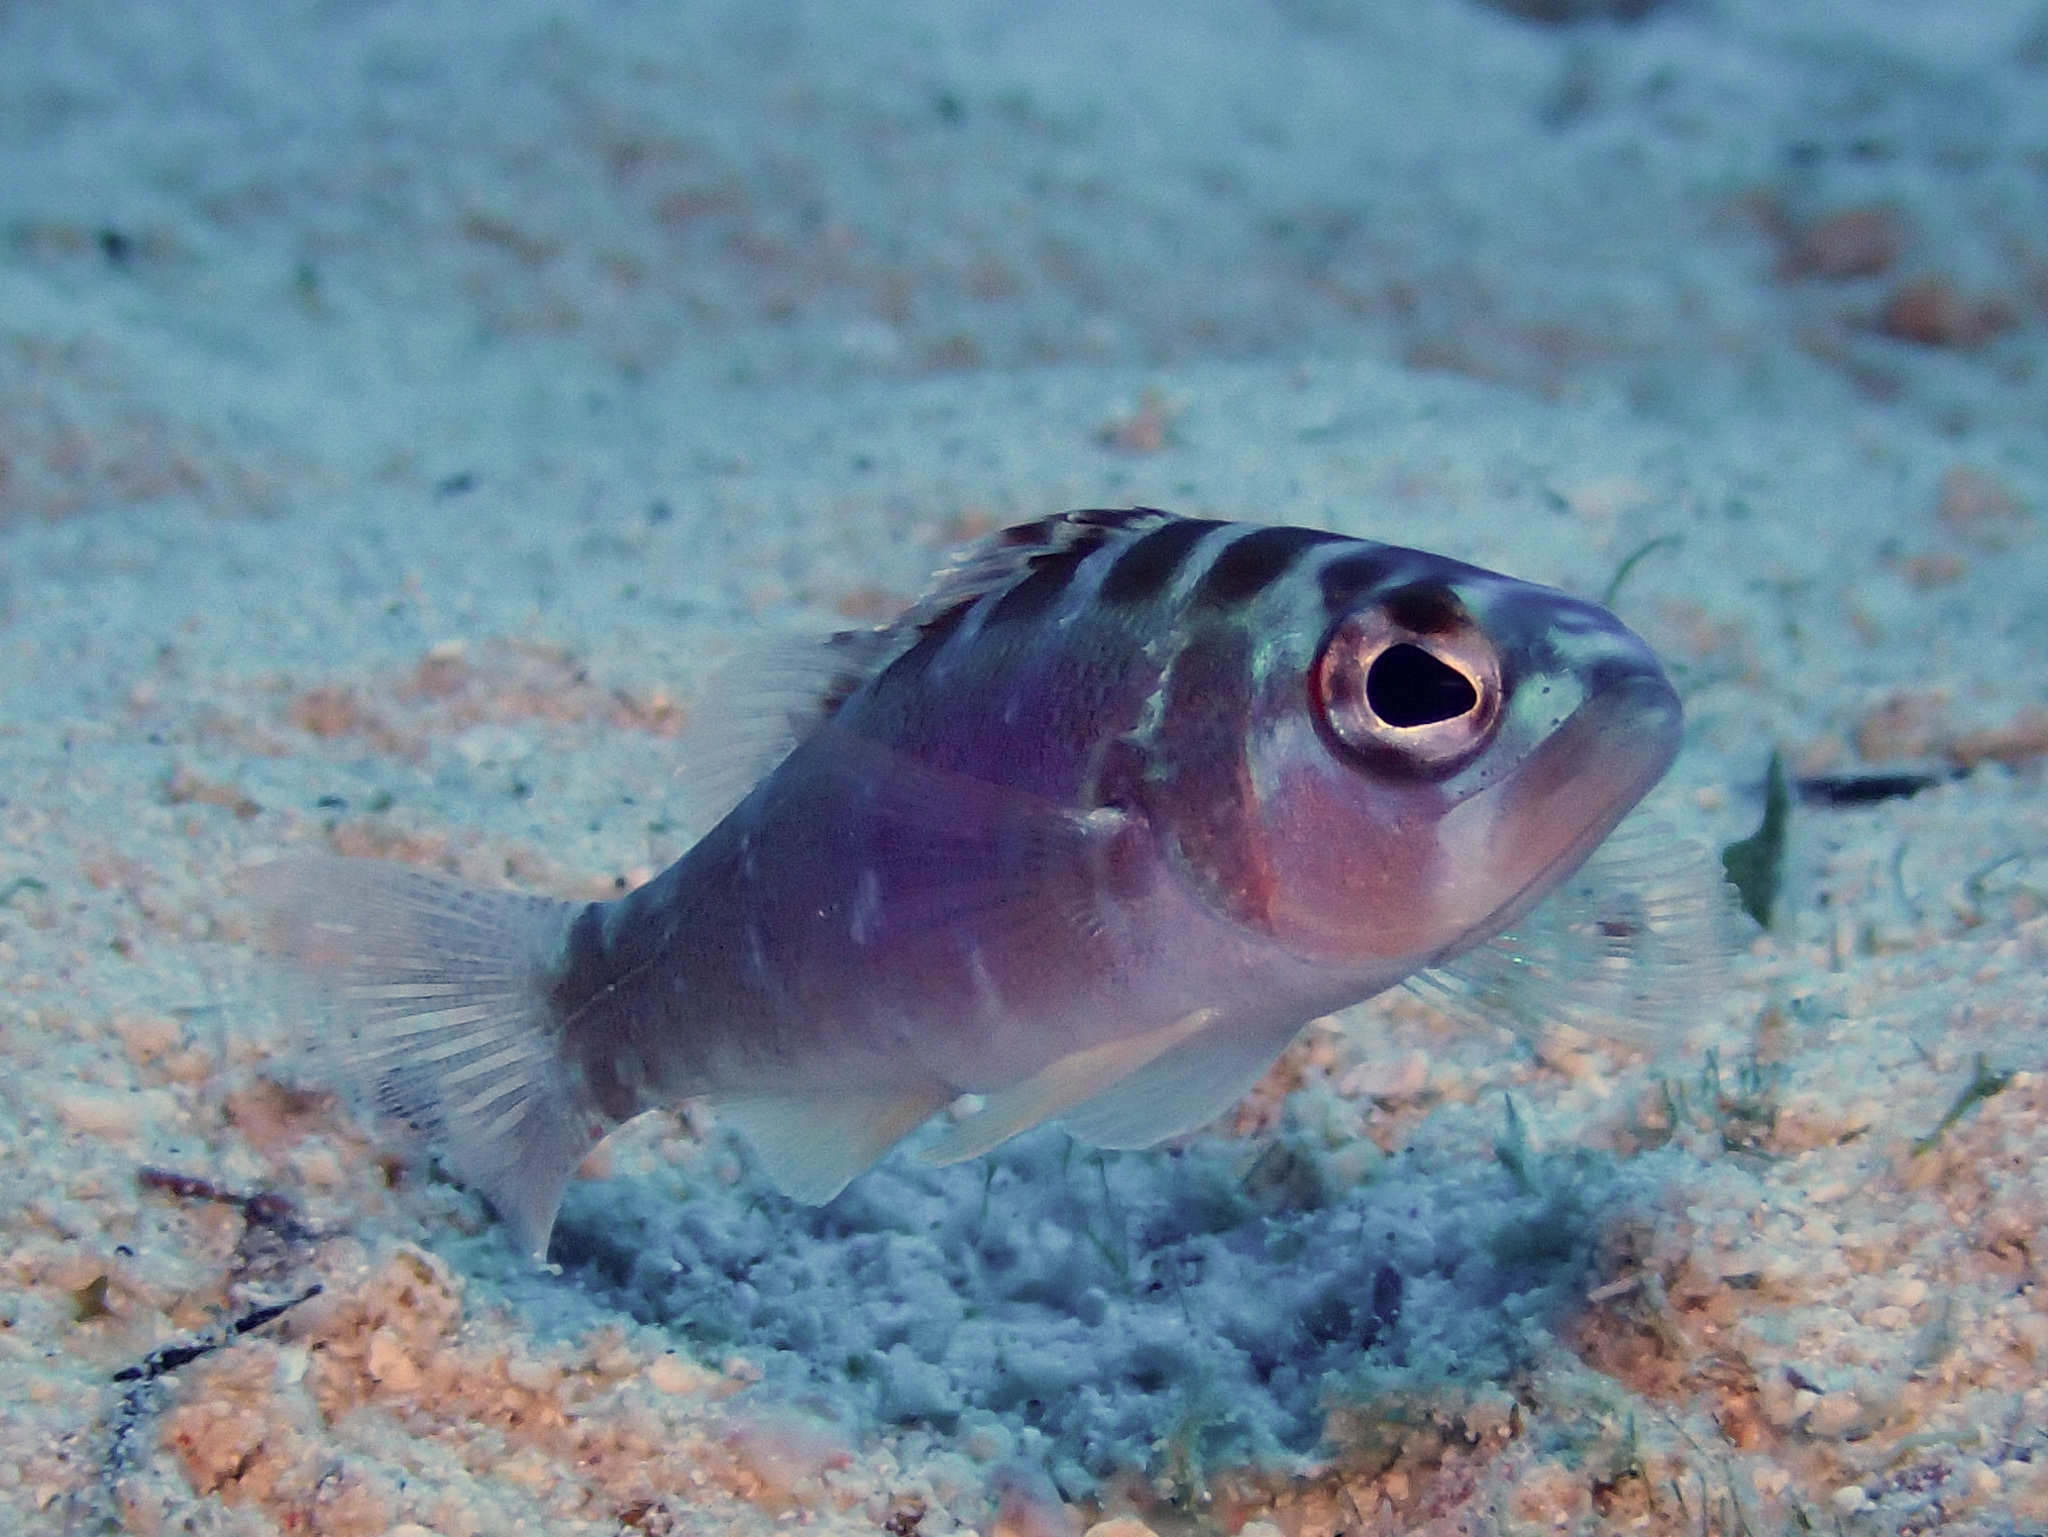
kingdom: Animalia
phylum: Chordata
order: Perciformes
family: Serranidae
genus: Serranus
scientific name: Serranus tortugarum
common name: Chalk bass
